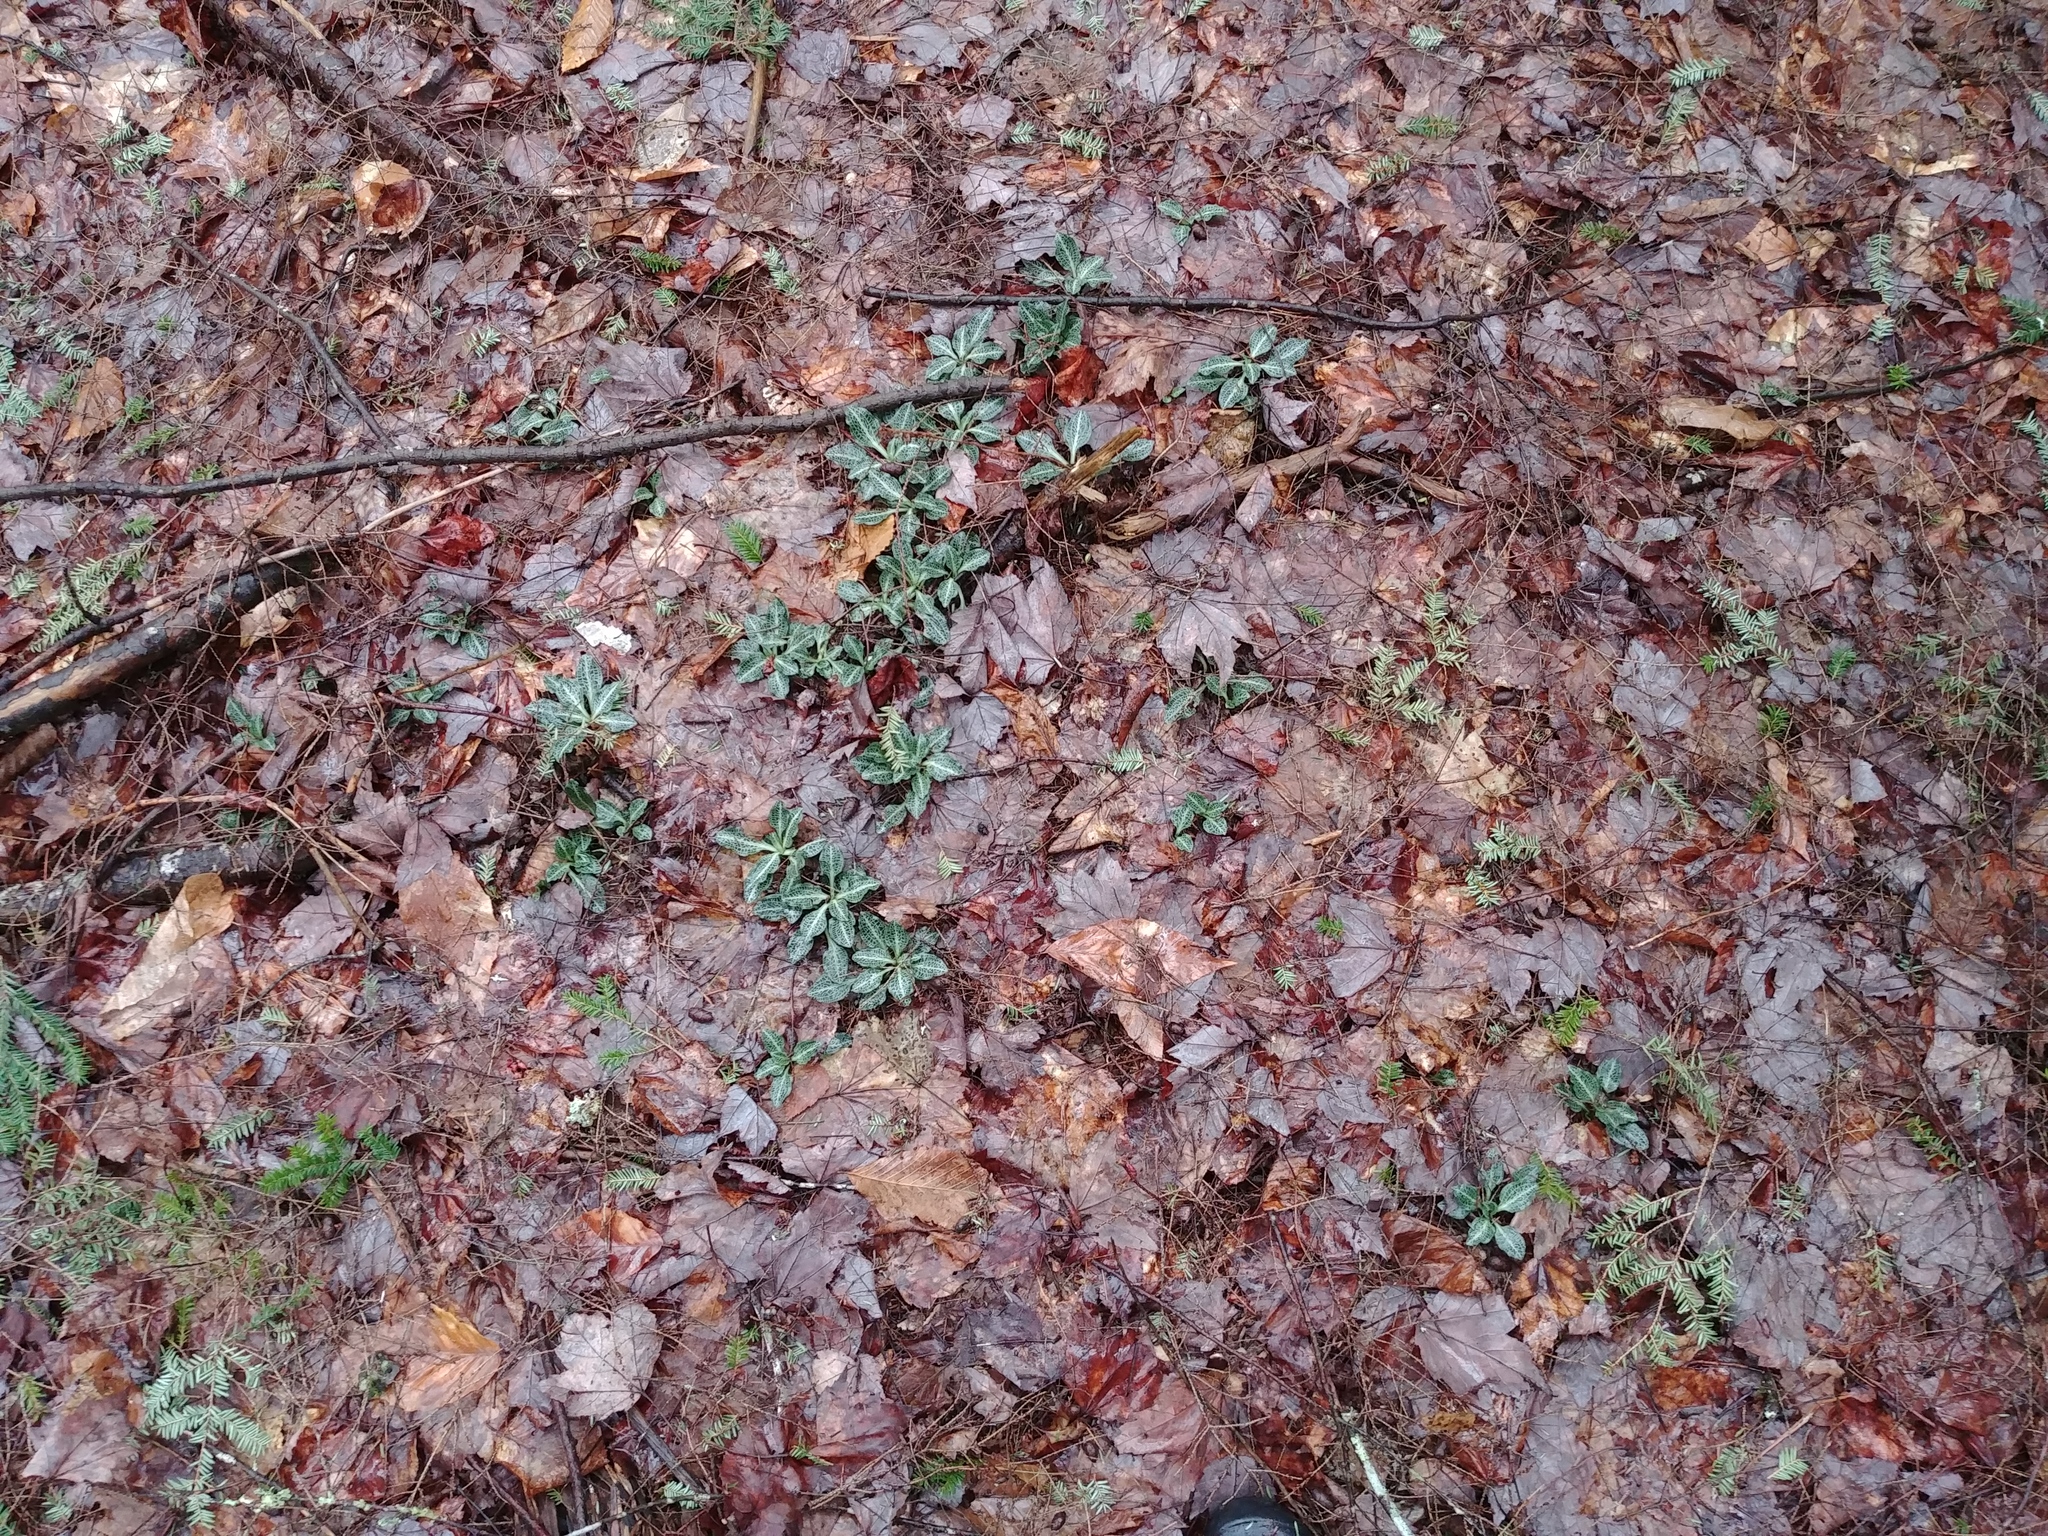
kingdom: Plantae
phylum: Tracheophyta
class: Liliopsida
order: Asparagales
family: Orchidaceae
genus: Goodyera
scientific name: Goodyera pubescens
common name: Downy rattlesnake-plantain
